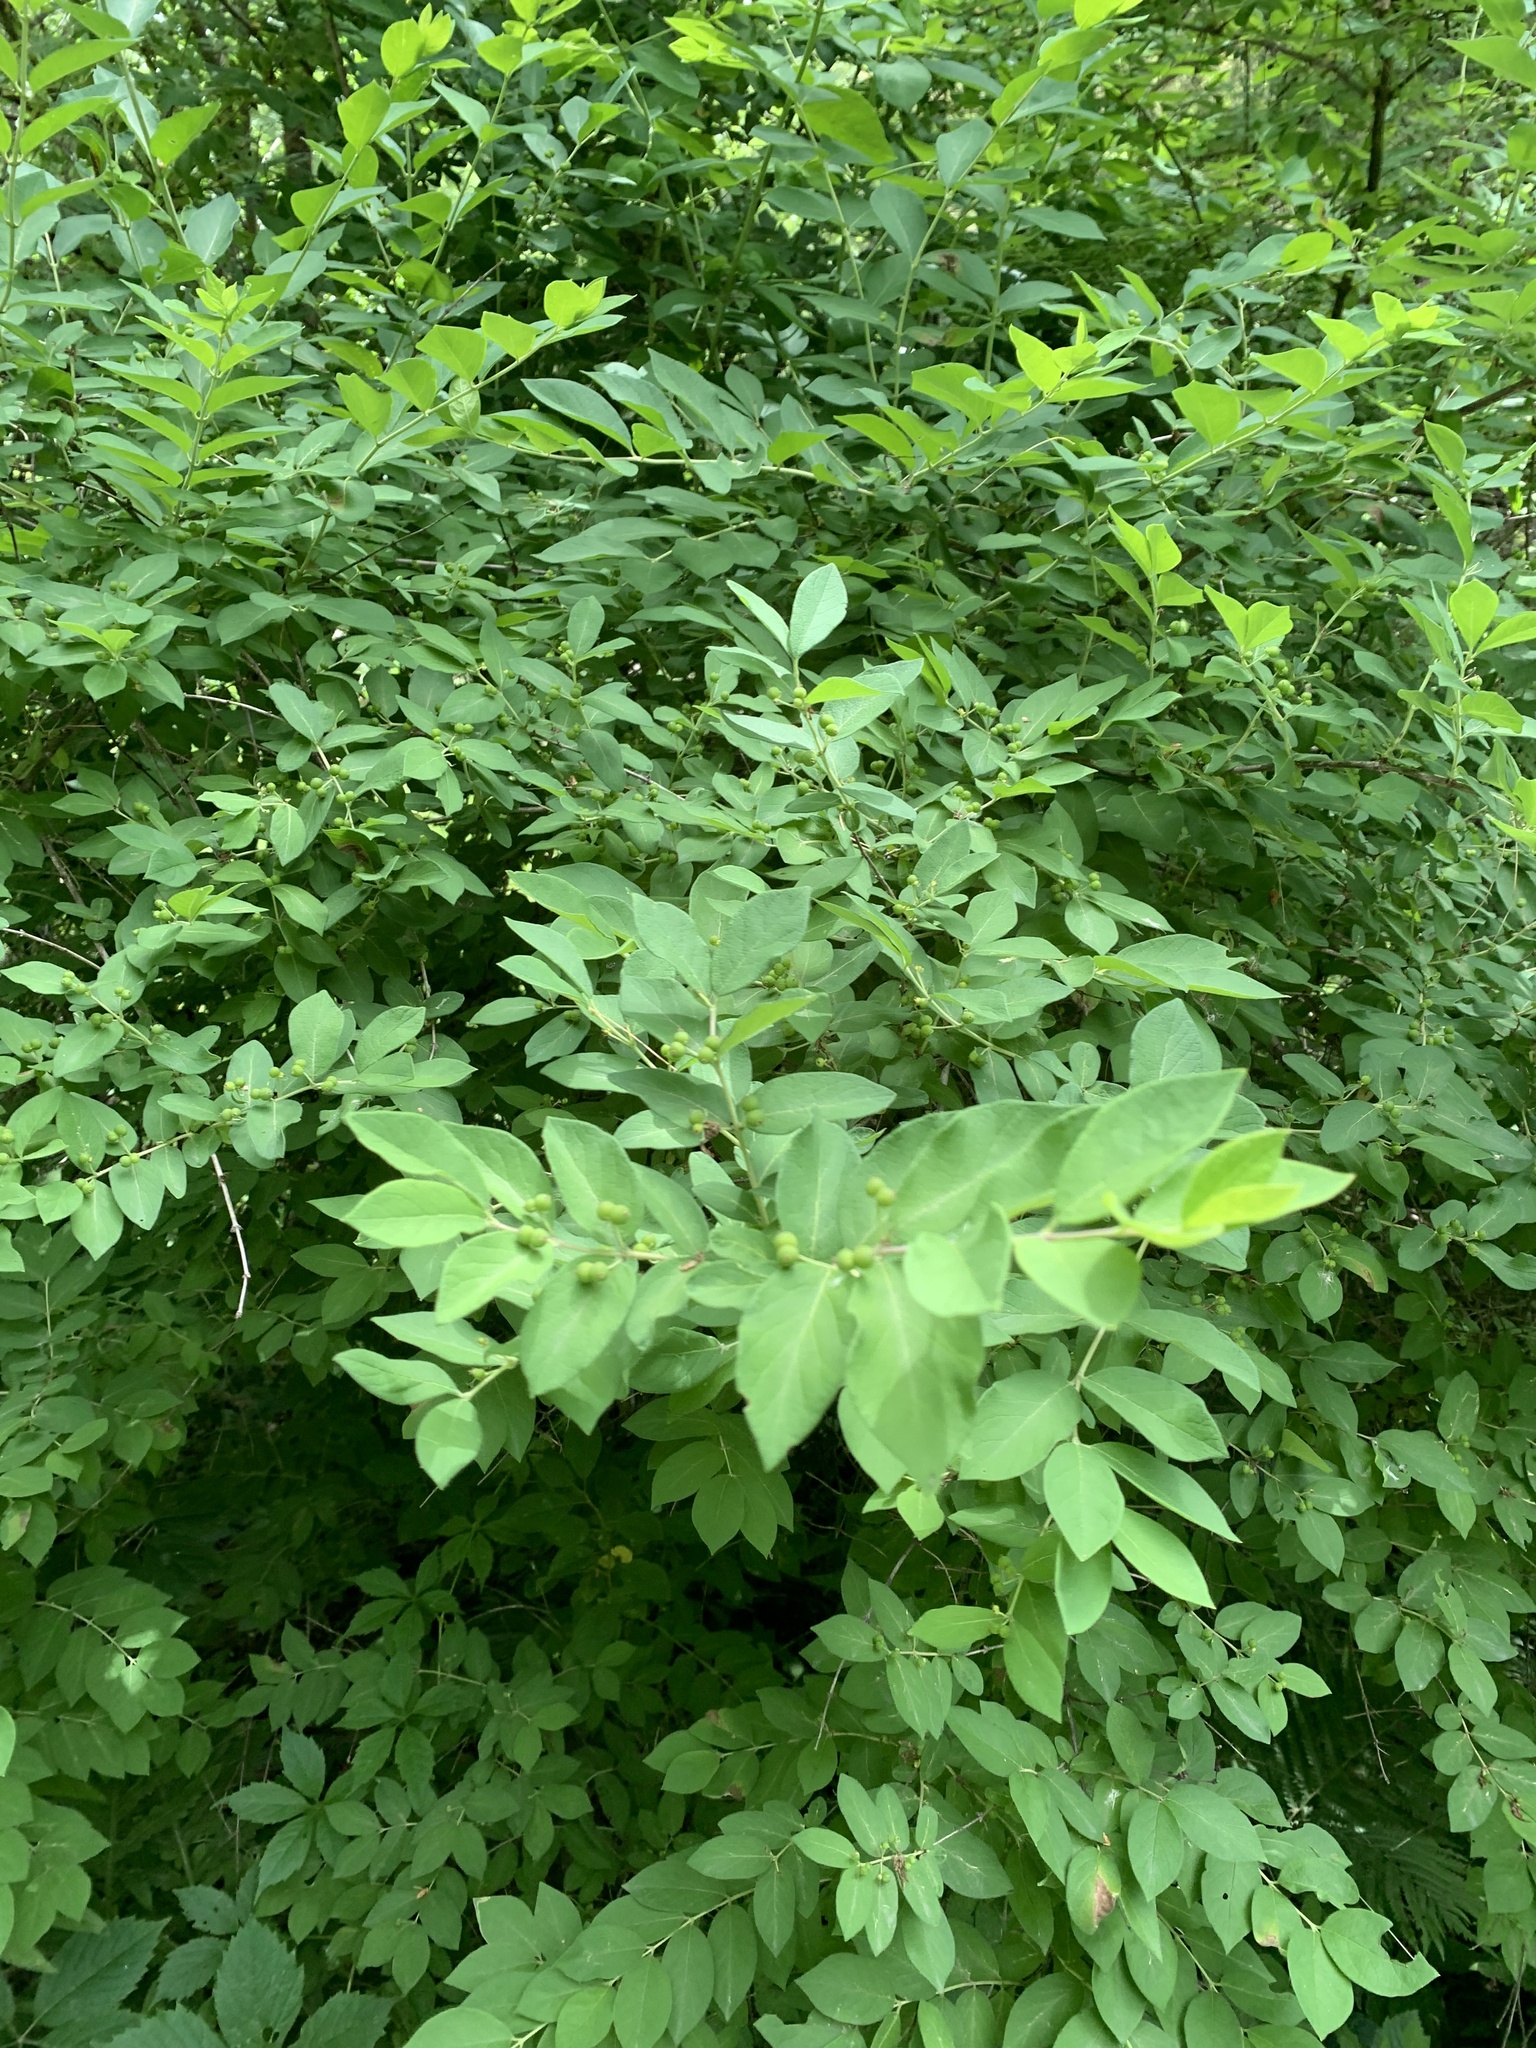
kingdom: Plantae
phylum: Tracheophyta
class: Magnoliopsida
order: Dipsacales
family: Caprifoliaceae
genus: Lonicera
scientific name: Lonicera
